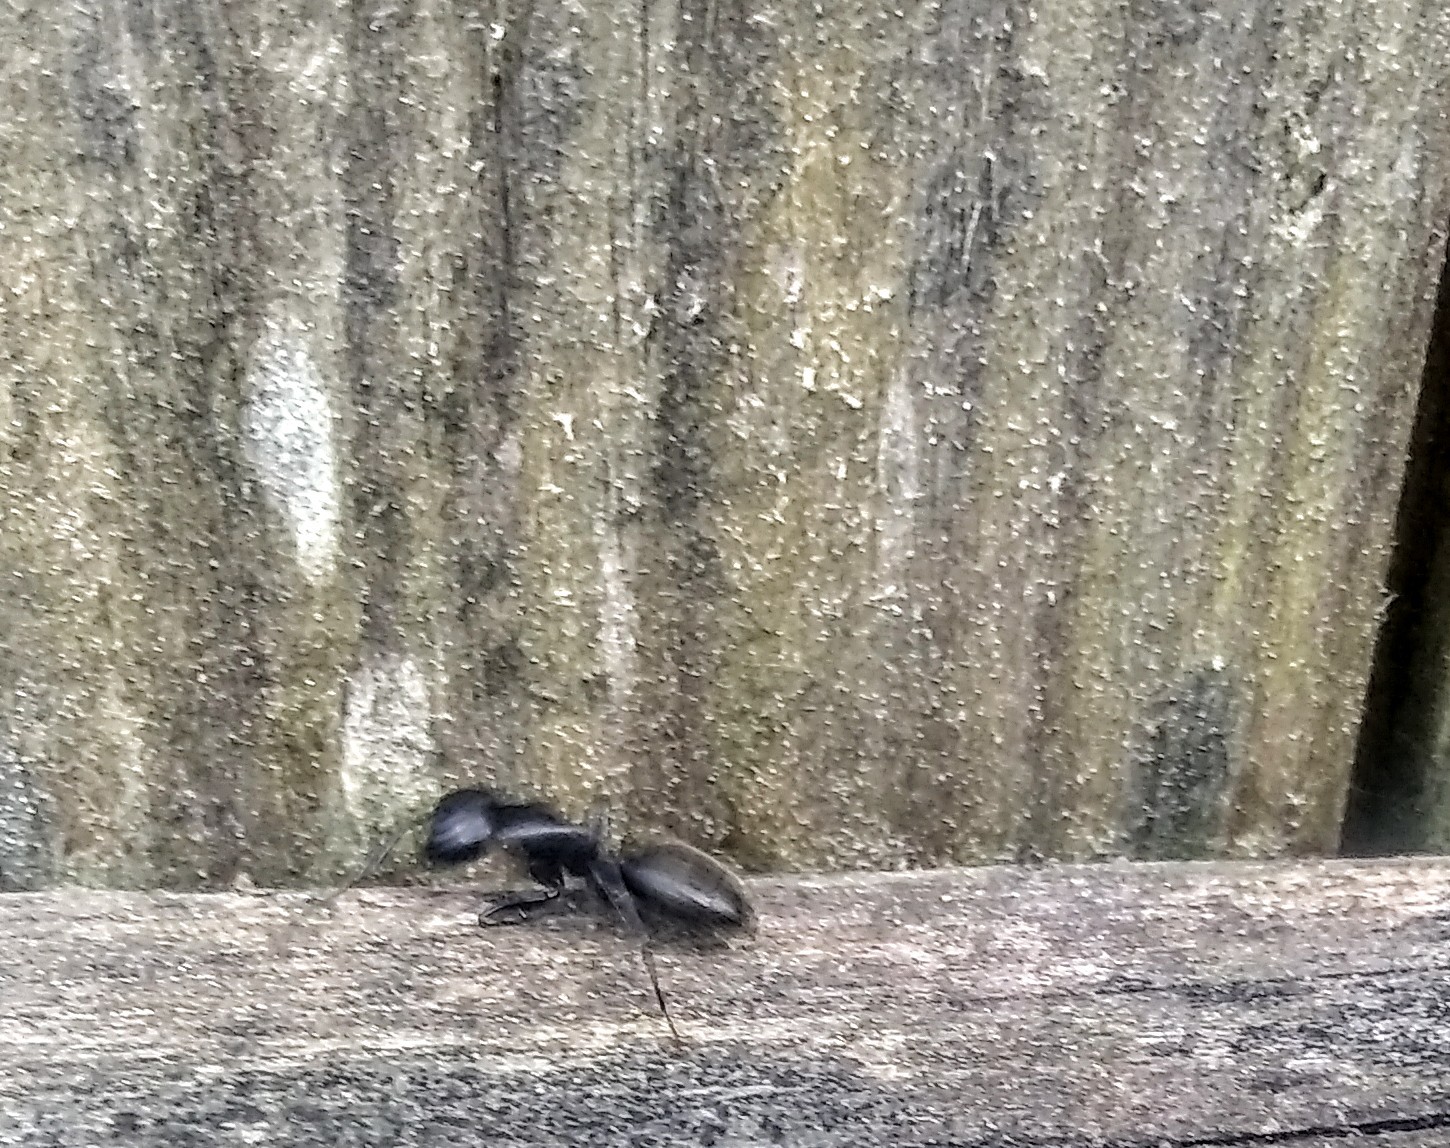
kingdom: Animalia
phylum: Arthropoda
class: Insecta
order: Hymenoptera
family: Formicidae
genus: Camponotus
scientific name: Camponotus pennsylvanicus
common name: Black carpenter ant
